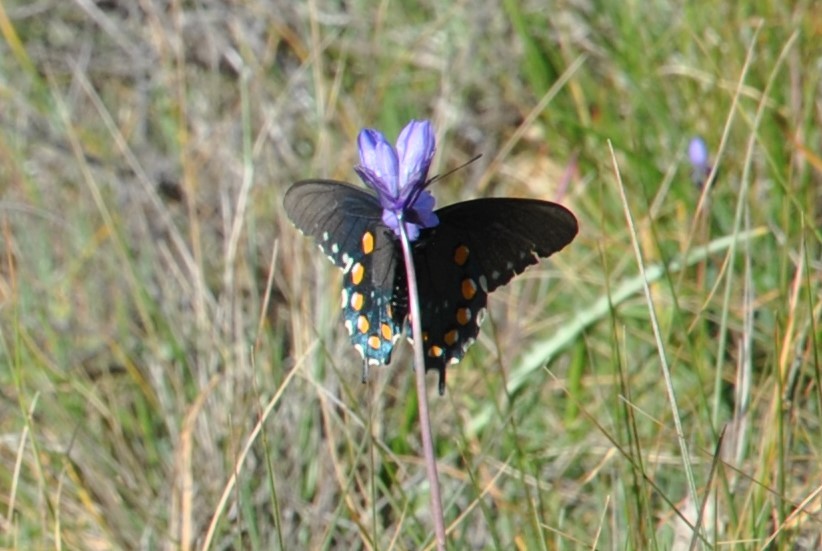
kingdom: Animalia
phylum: Arthropoda
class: Insecta
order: Lepidoptera
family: Papilionidae
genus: Battus
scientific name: Battus philenor
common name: Pipevine swallowtail
